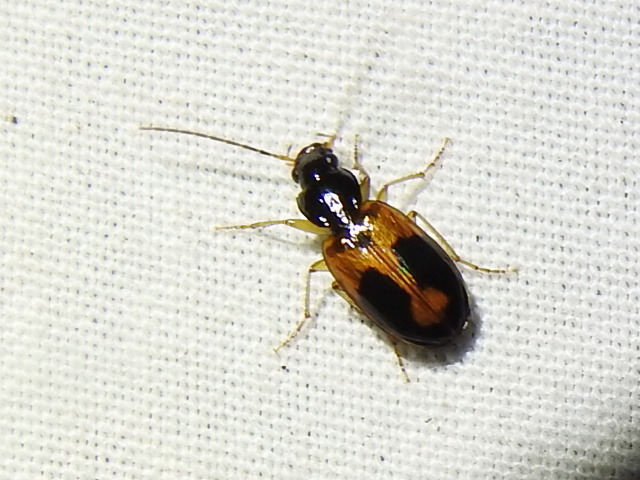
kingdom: Animalia
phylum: Arthropoda
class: Insecta
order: Coleoptera
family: Carabidae
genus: Badister
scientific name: Badister elegans
